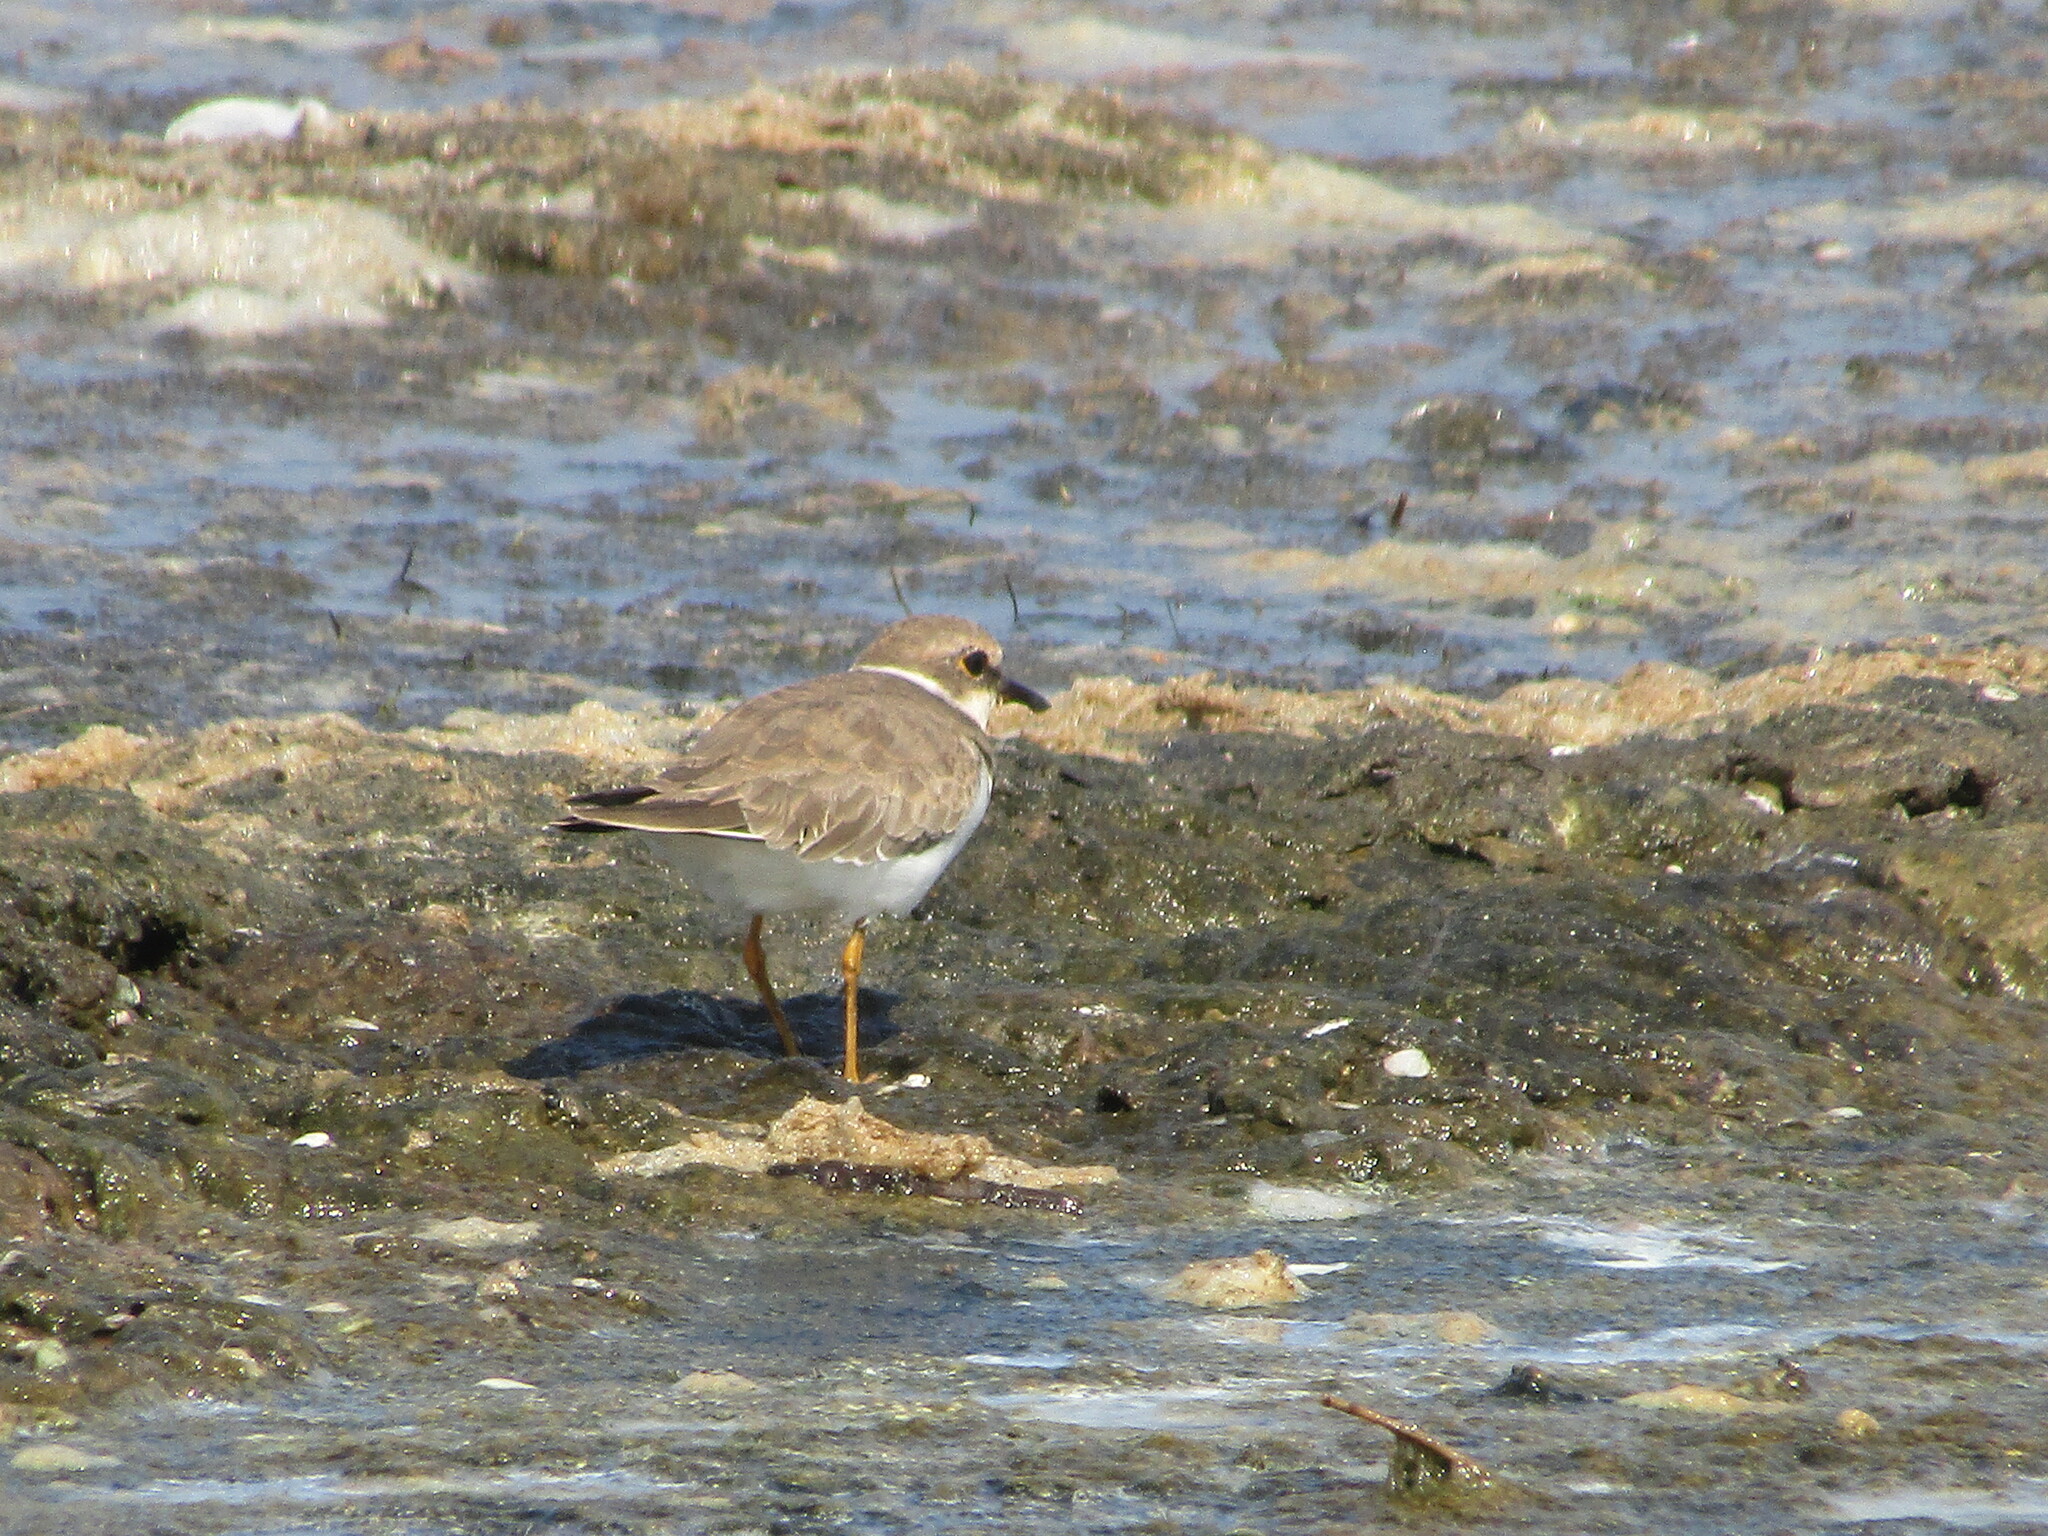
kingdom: Animalia
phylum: Chordata
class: Aves
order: Charadriiformes
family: Charadriidae
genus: Charadrius
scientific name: Charadrius dubius
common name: Little ringed plover
